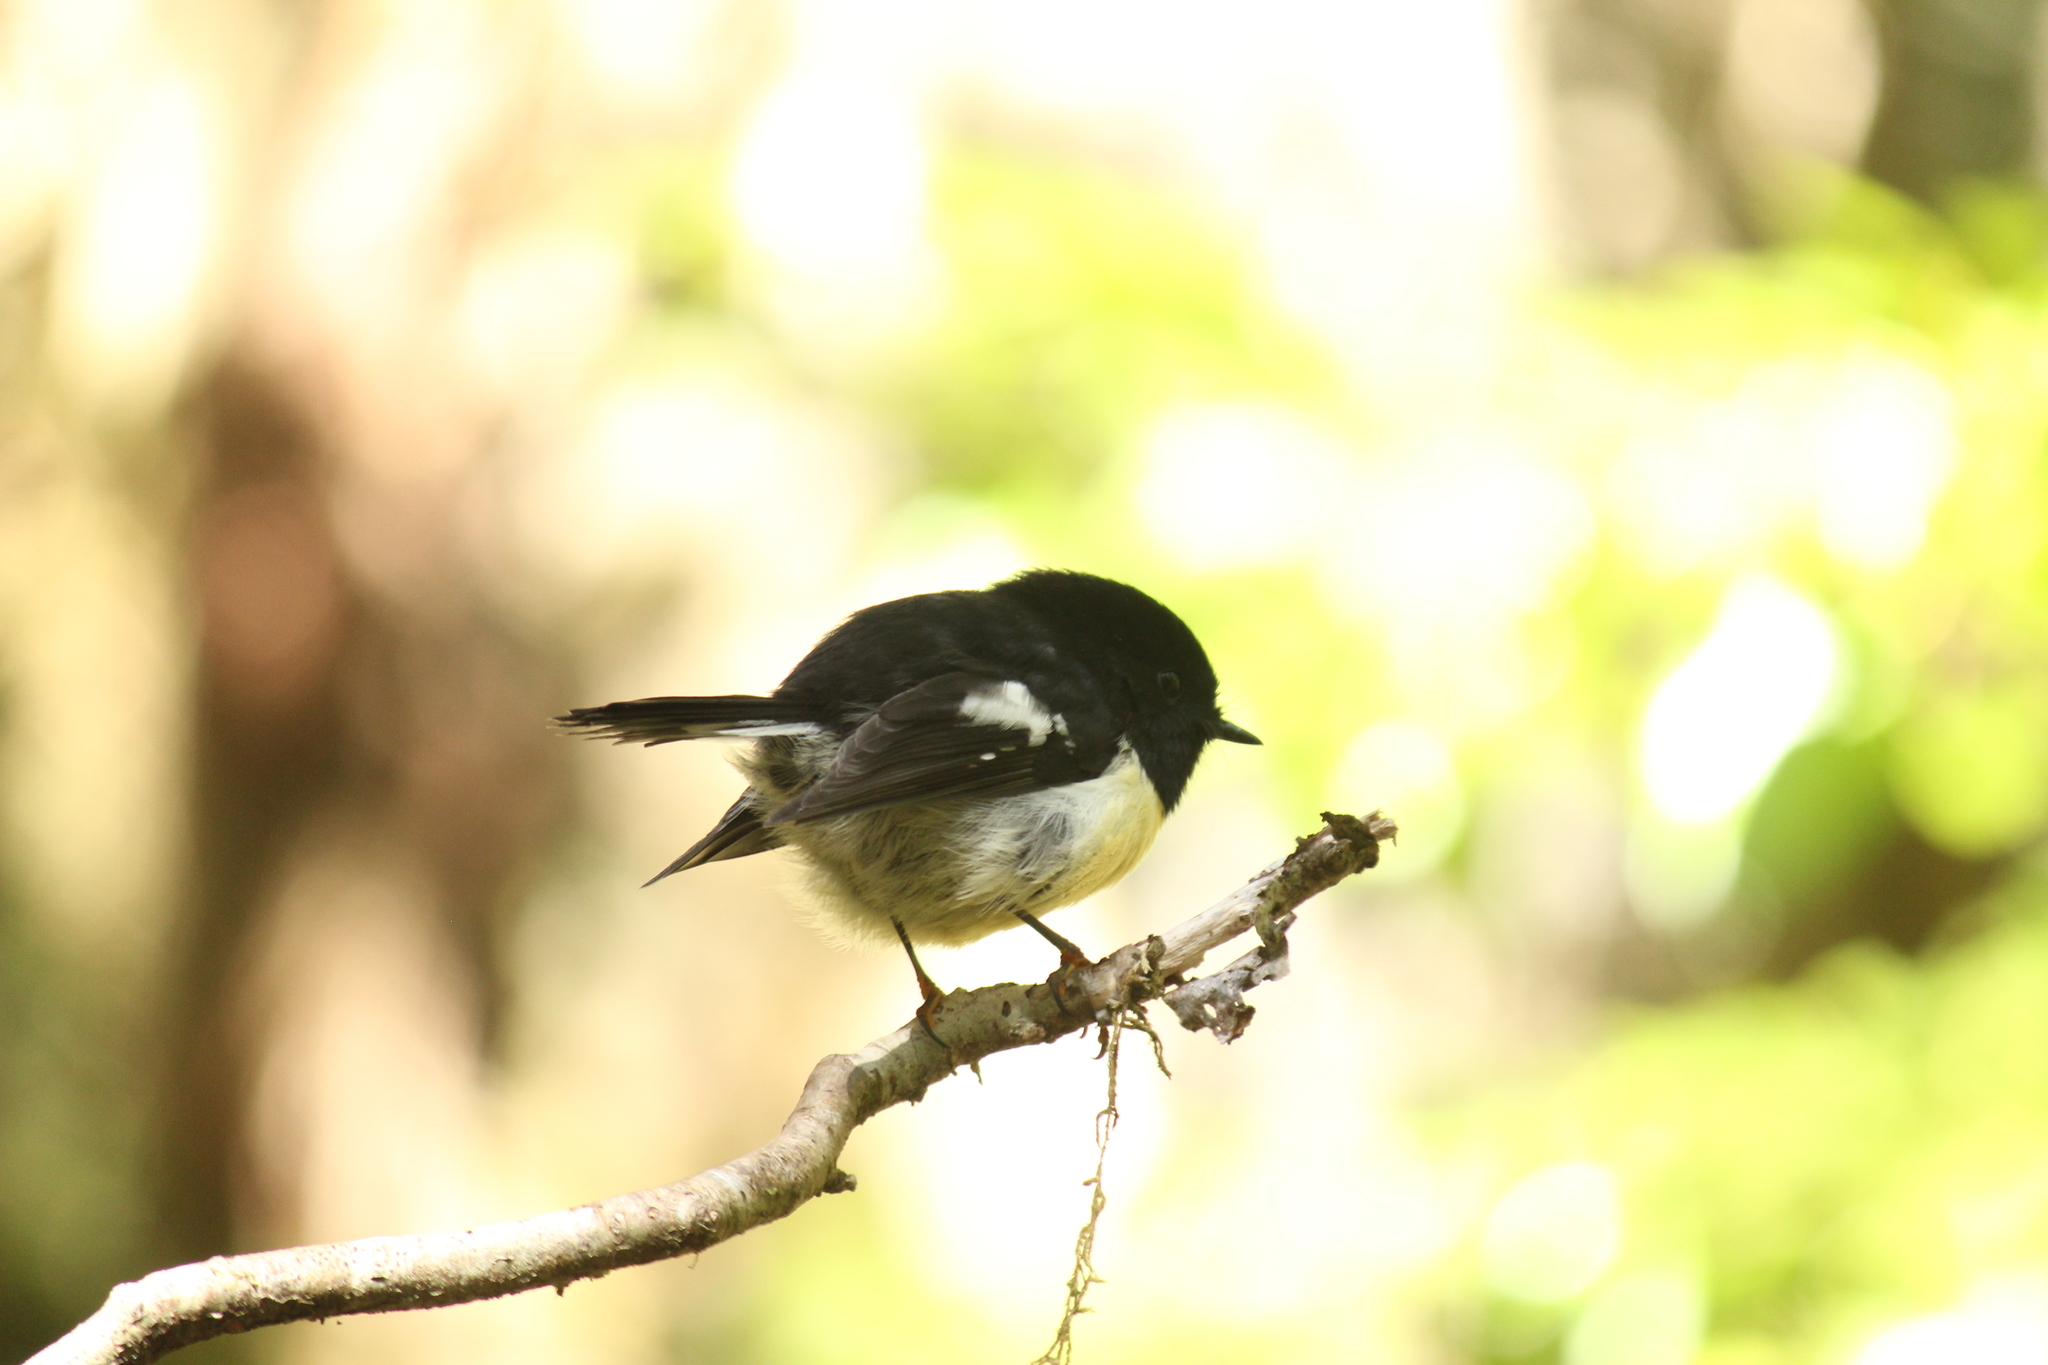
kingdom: Animalia
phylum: Chordata
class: Aves
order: Passeriformes
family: Petroicidae
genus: Petroica
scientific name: Petroica macrocephala
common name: Tomtit
